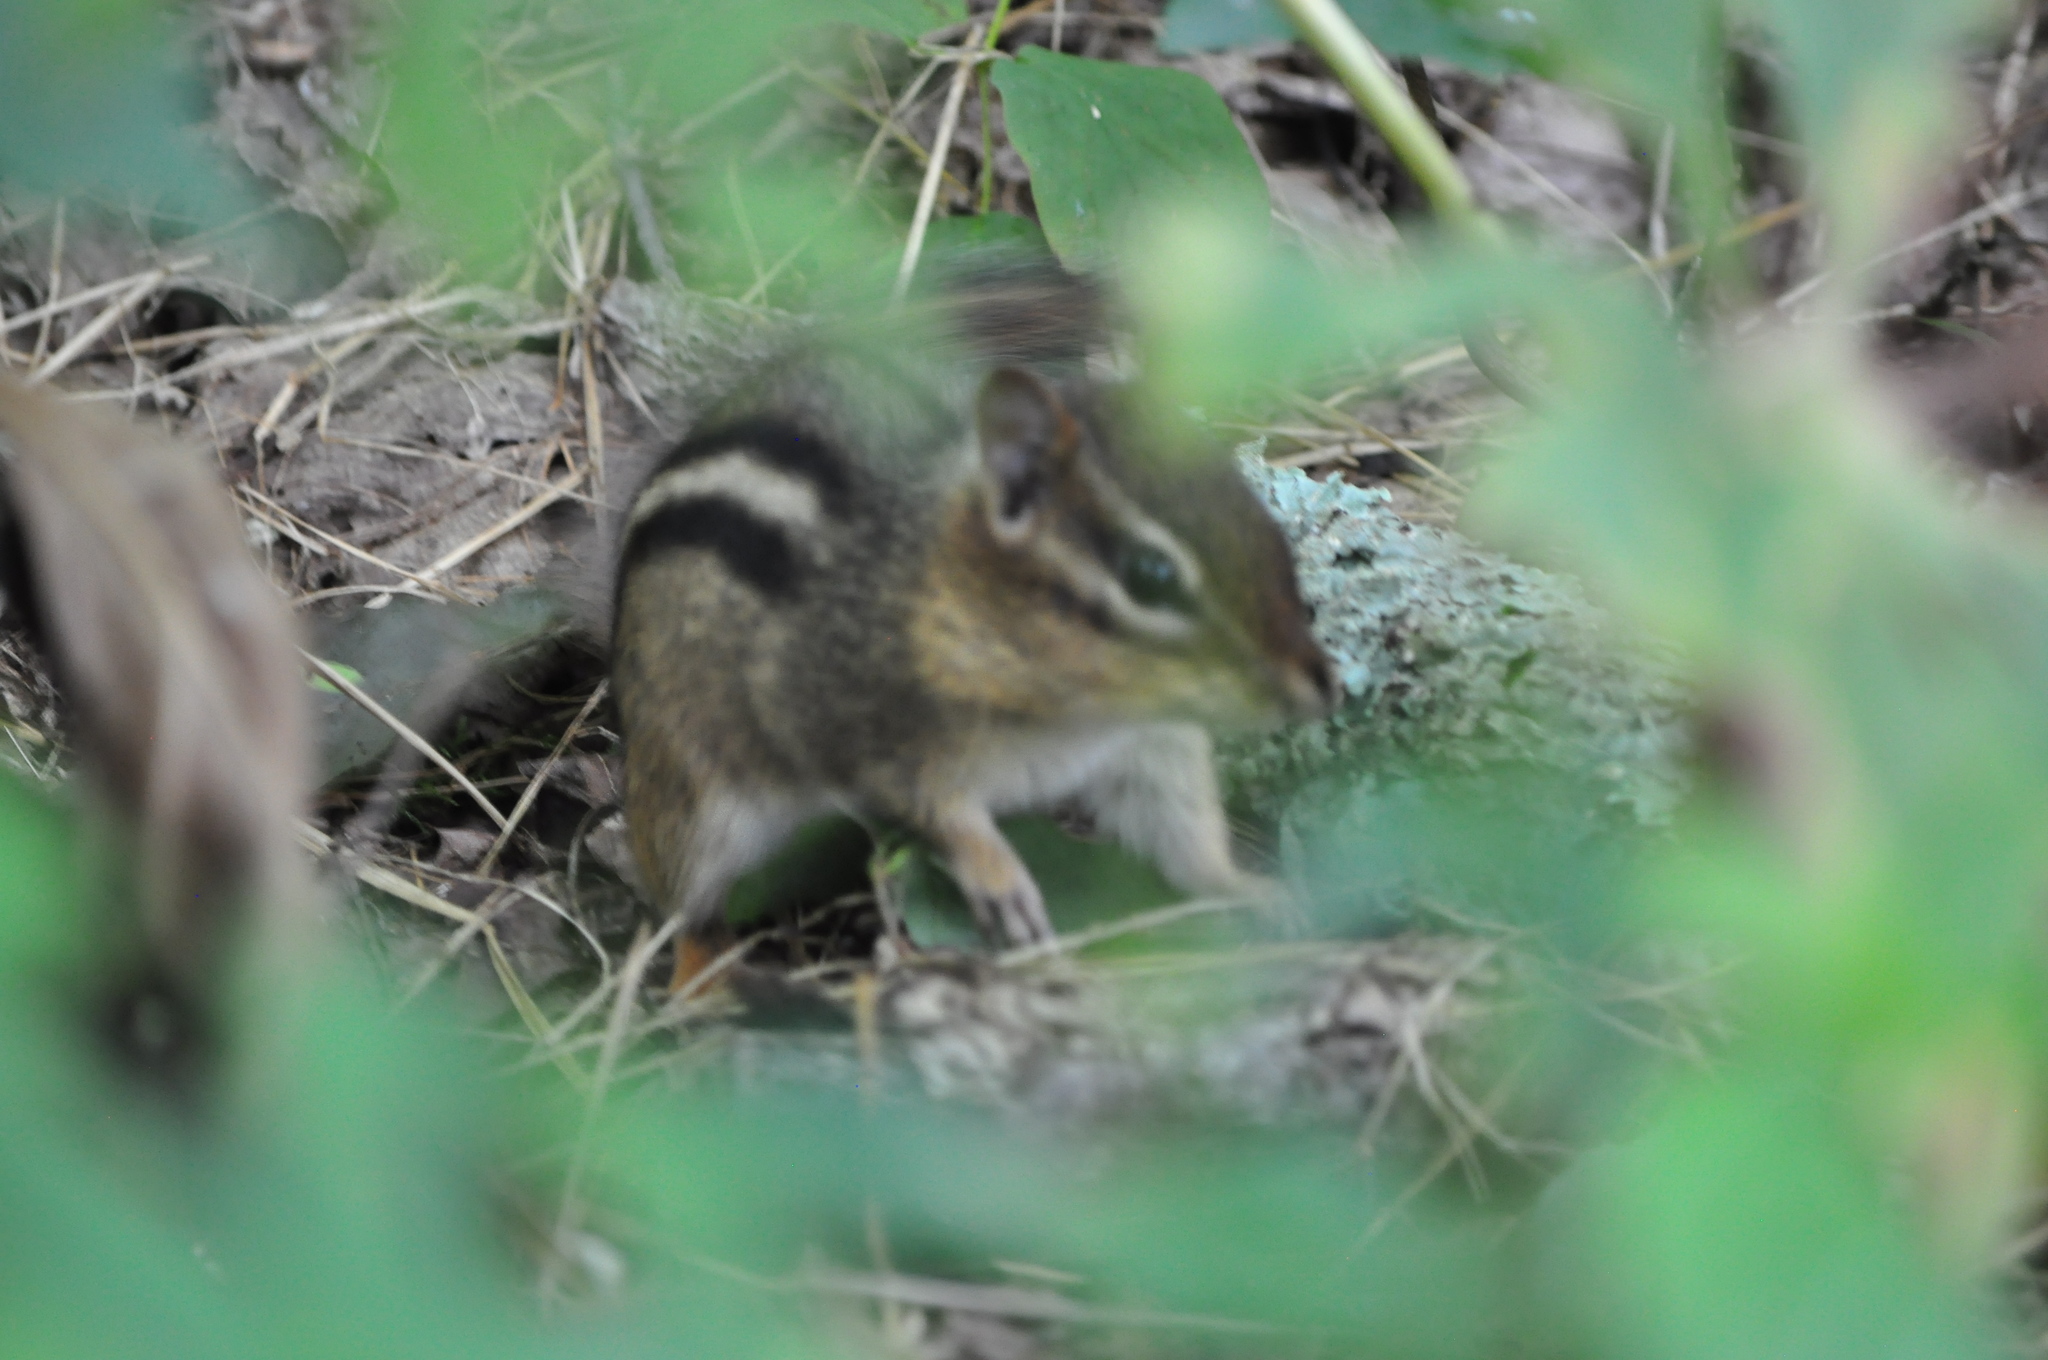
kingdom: Animalia
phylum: Chordata
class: Mammalia
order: Rodentia
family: Sciuridae
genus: Tamias
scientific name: Tamias striatus
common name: Eastern chipmunk
